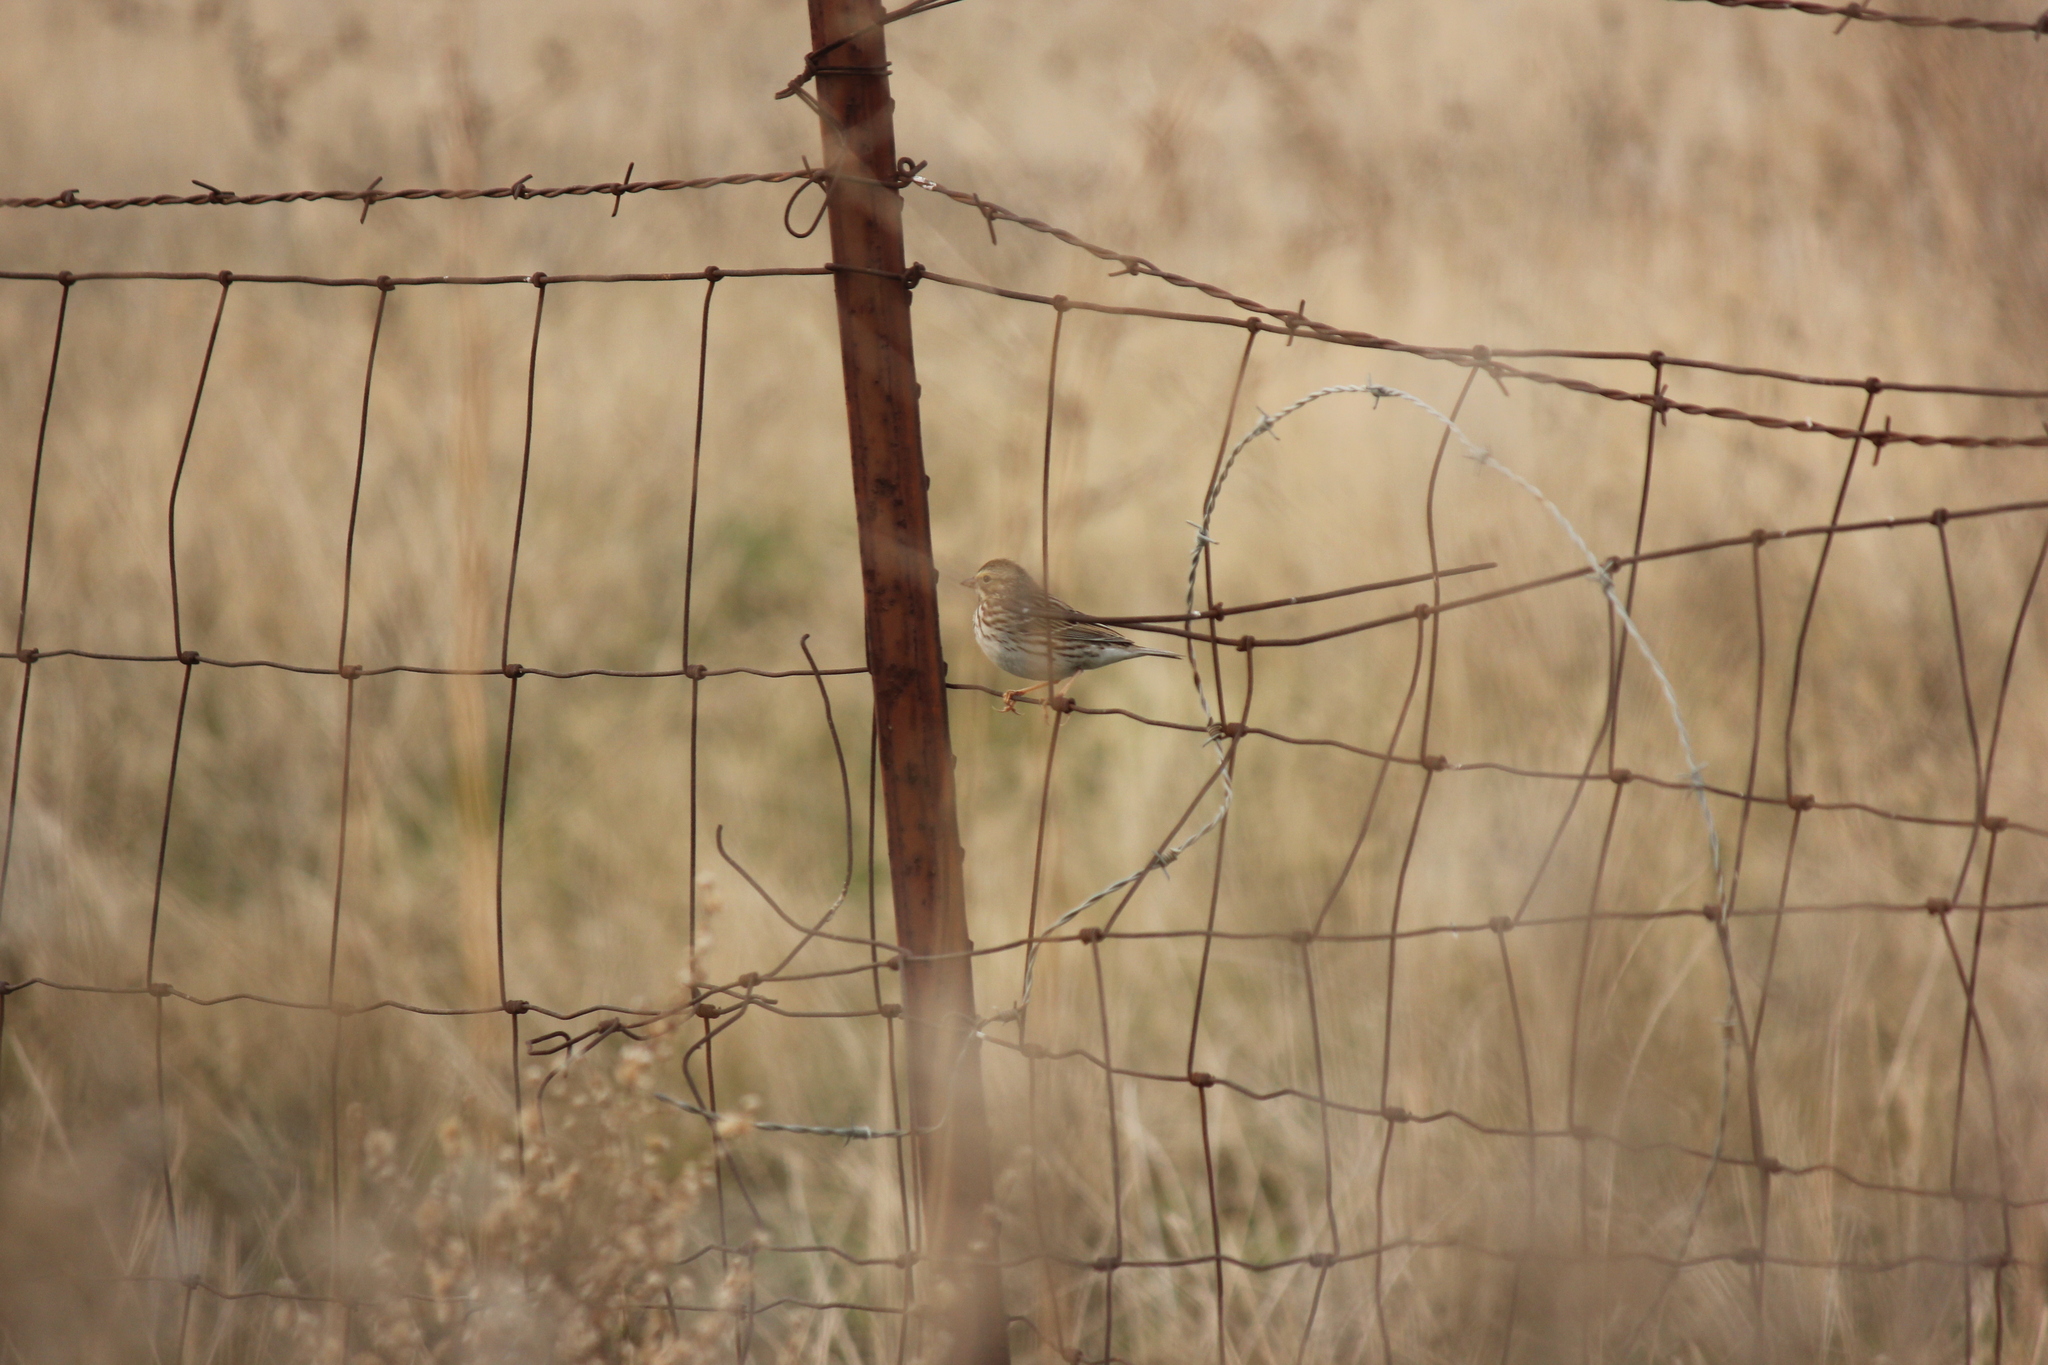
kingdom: Animalia
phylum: Chordata
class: Aves
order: Passeriformes
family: Passerellidae
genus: Passerculus
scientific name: Passerculus sandwichensis
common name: Savannah sparrow
